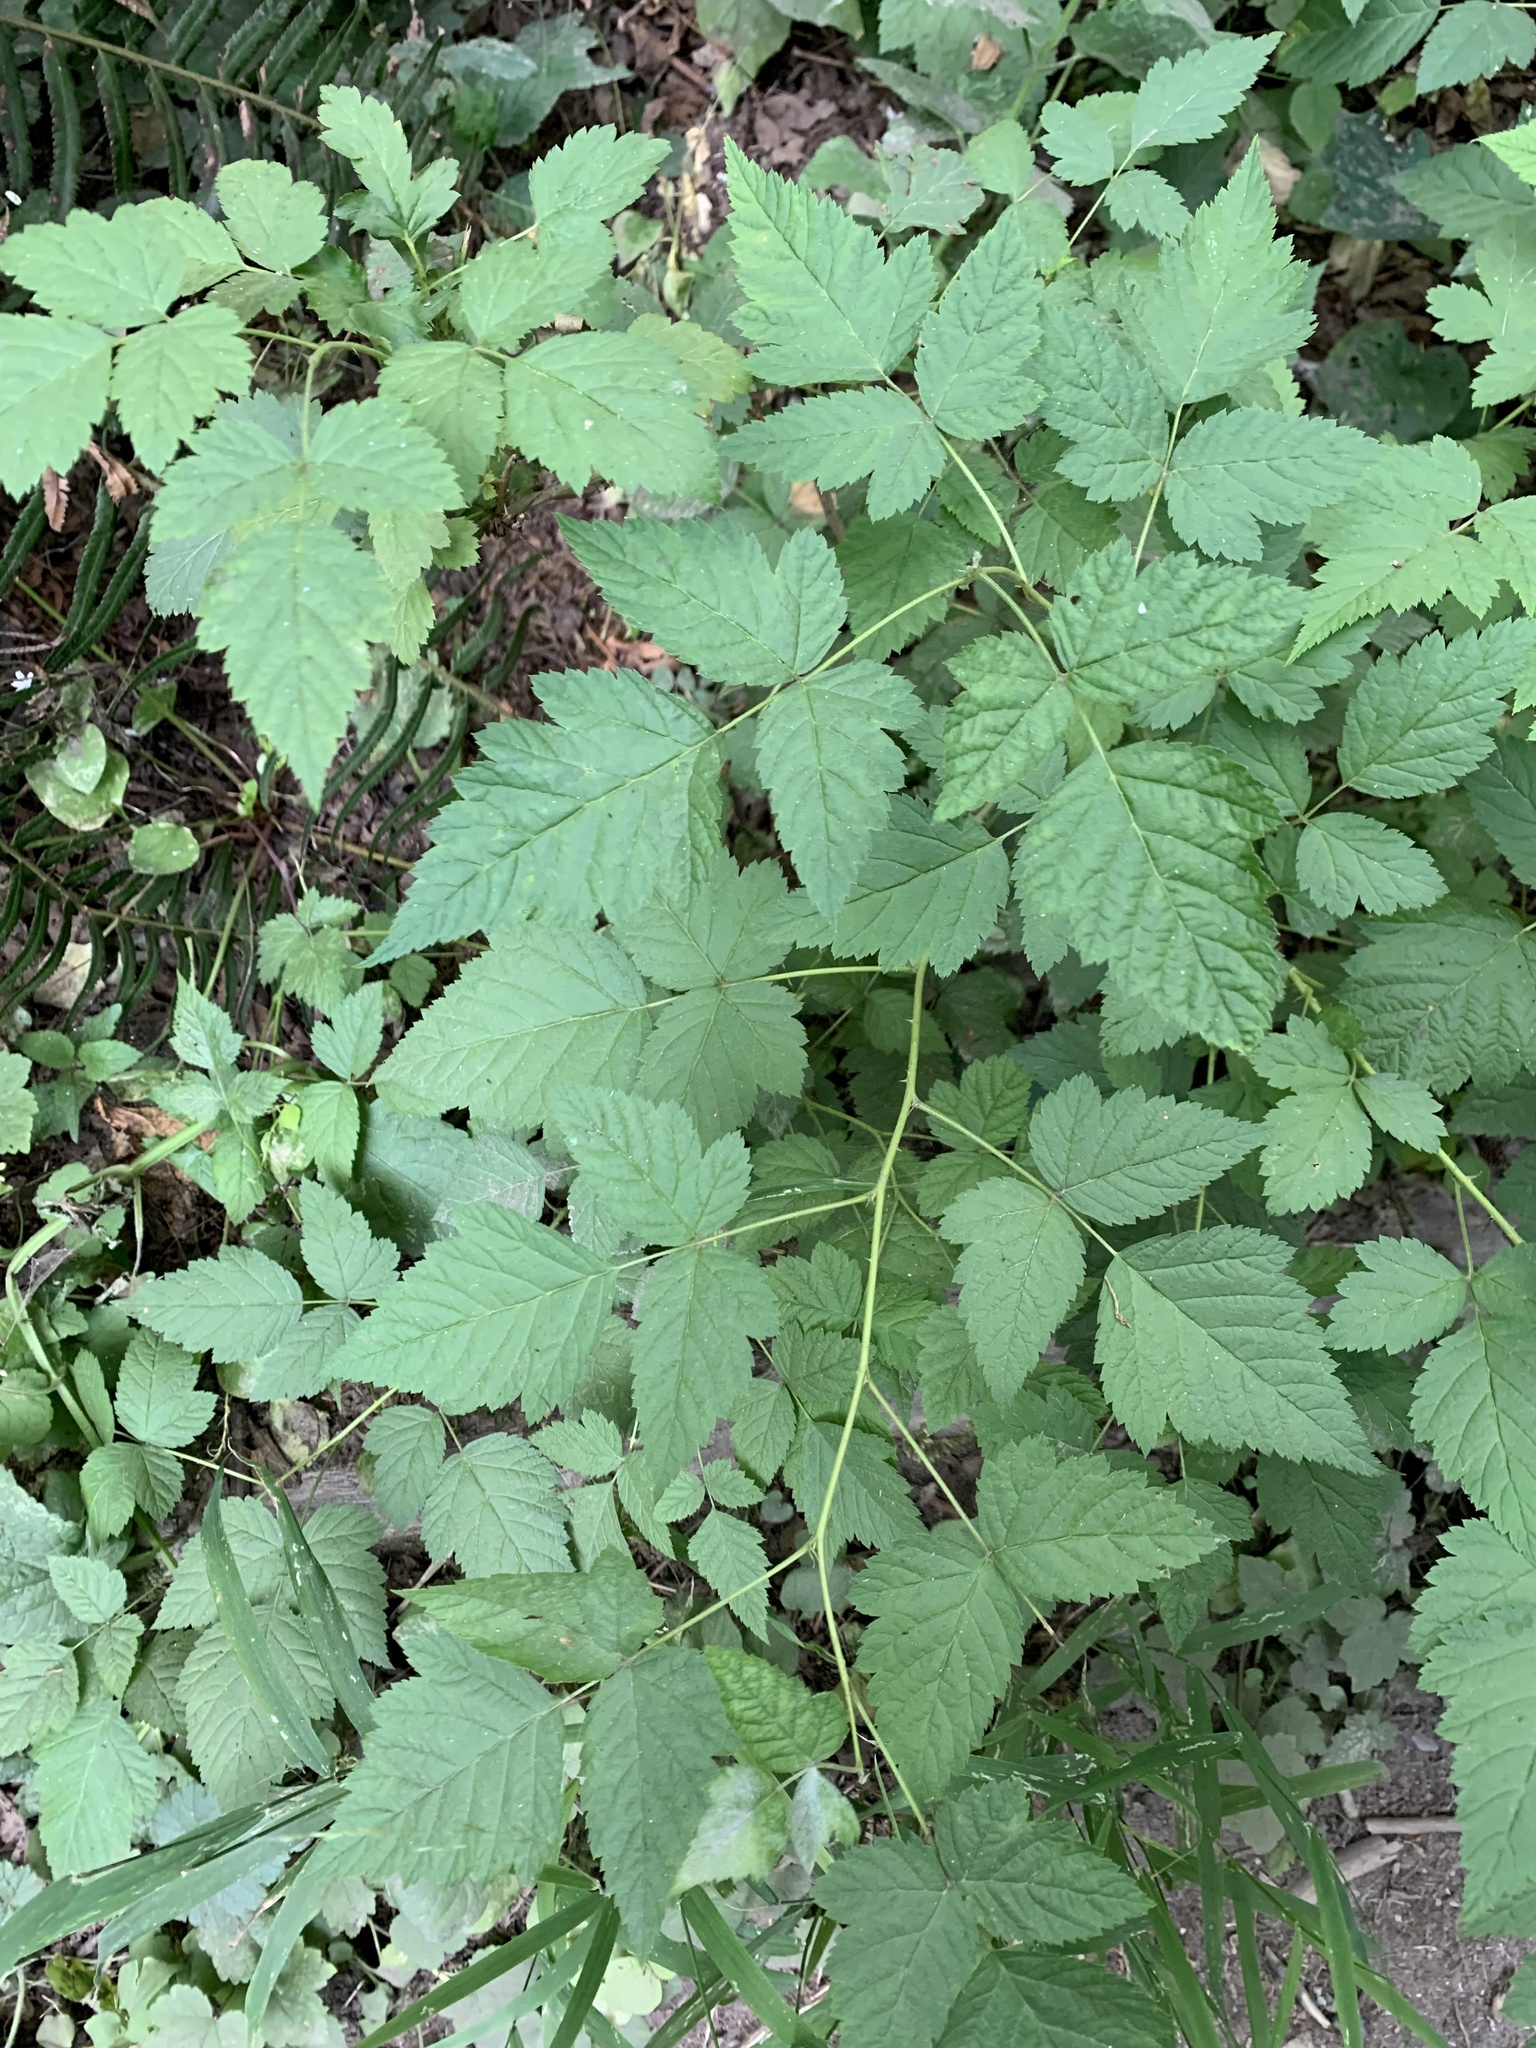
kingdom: Plantae
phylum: Tracheophyta
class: Magnoliopsida
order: Rosales
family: Rosaceae
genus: Rubus
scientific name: Rubus spectabilis
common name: Salmonberry
